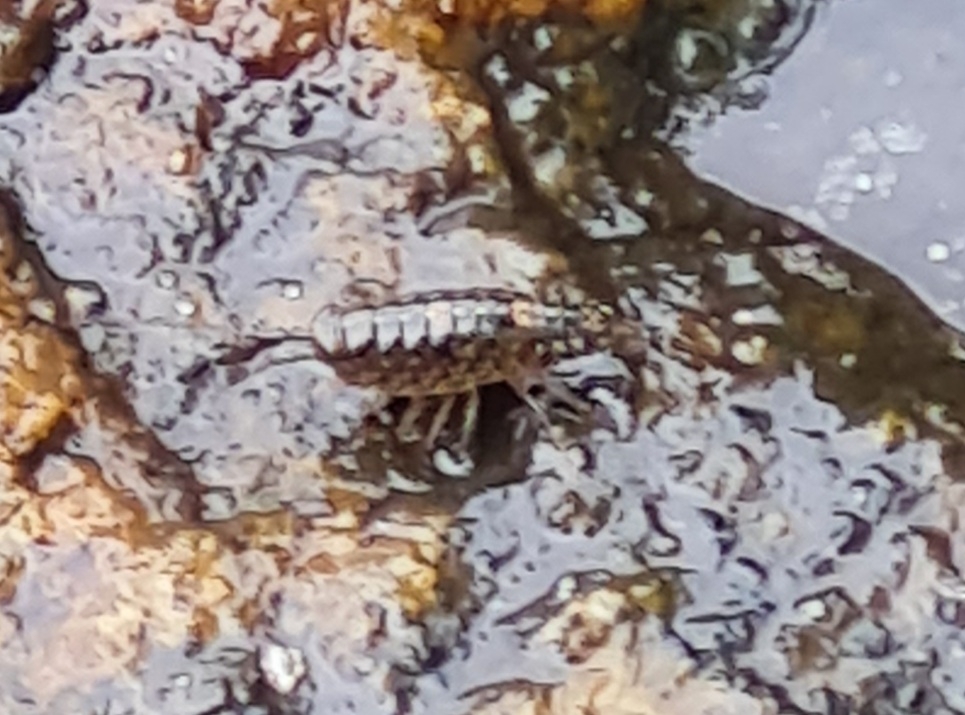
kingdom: Animalia
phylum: Arthropoda
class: Malacostraca
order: Isopoda
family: Ligiidae
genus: Ligia
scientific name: Ligia exotica
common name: Wharf roach
